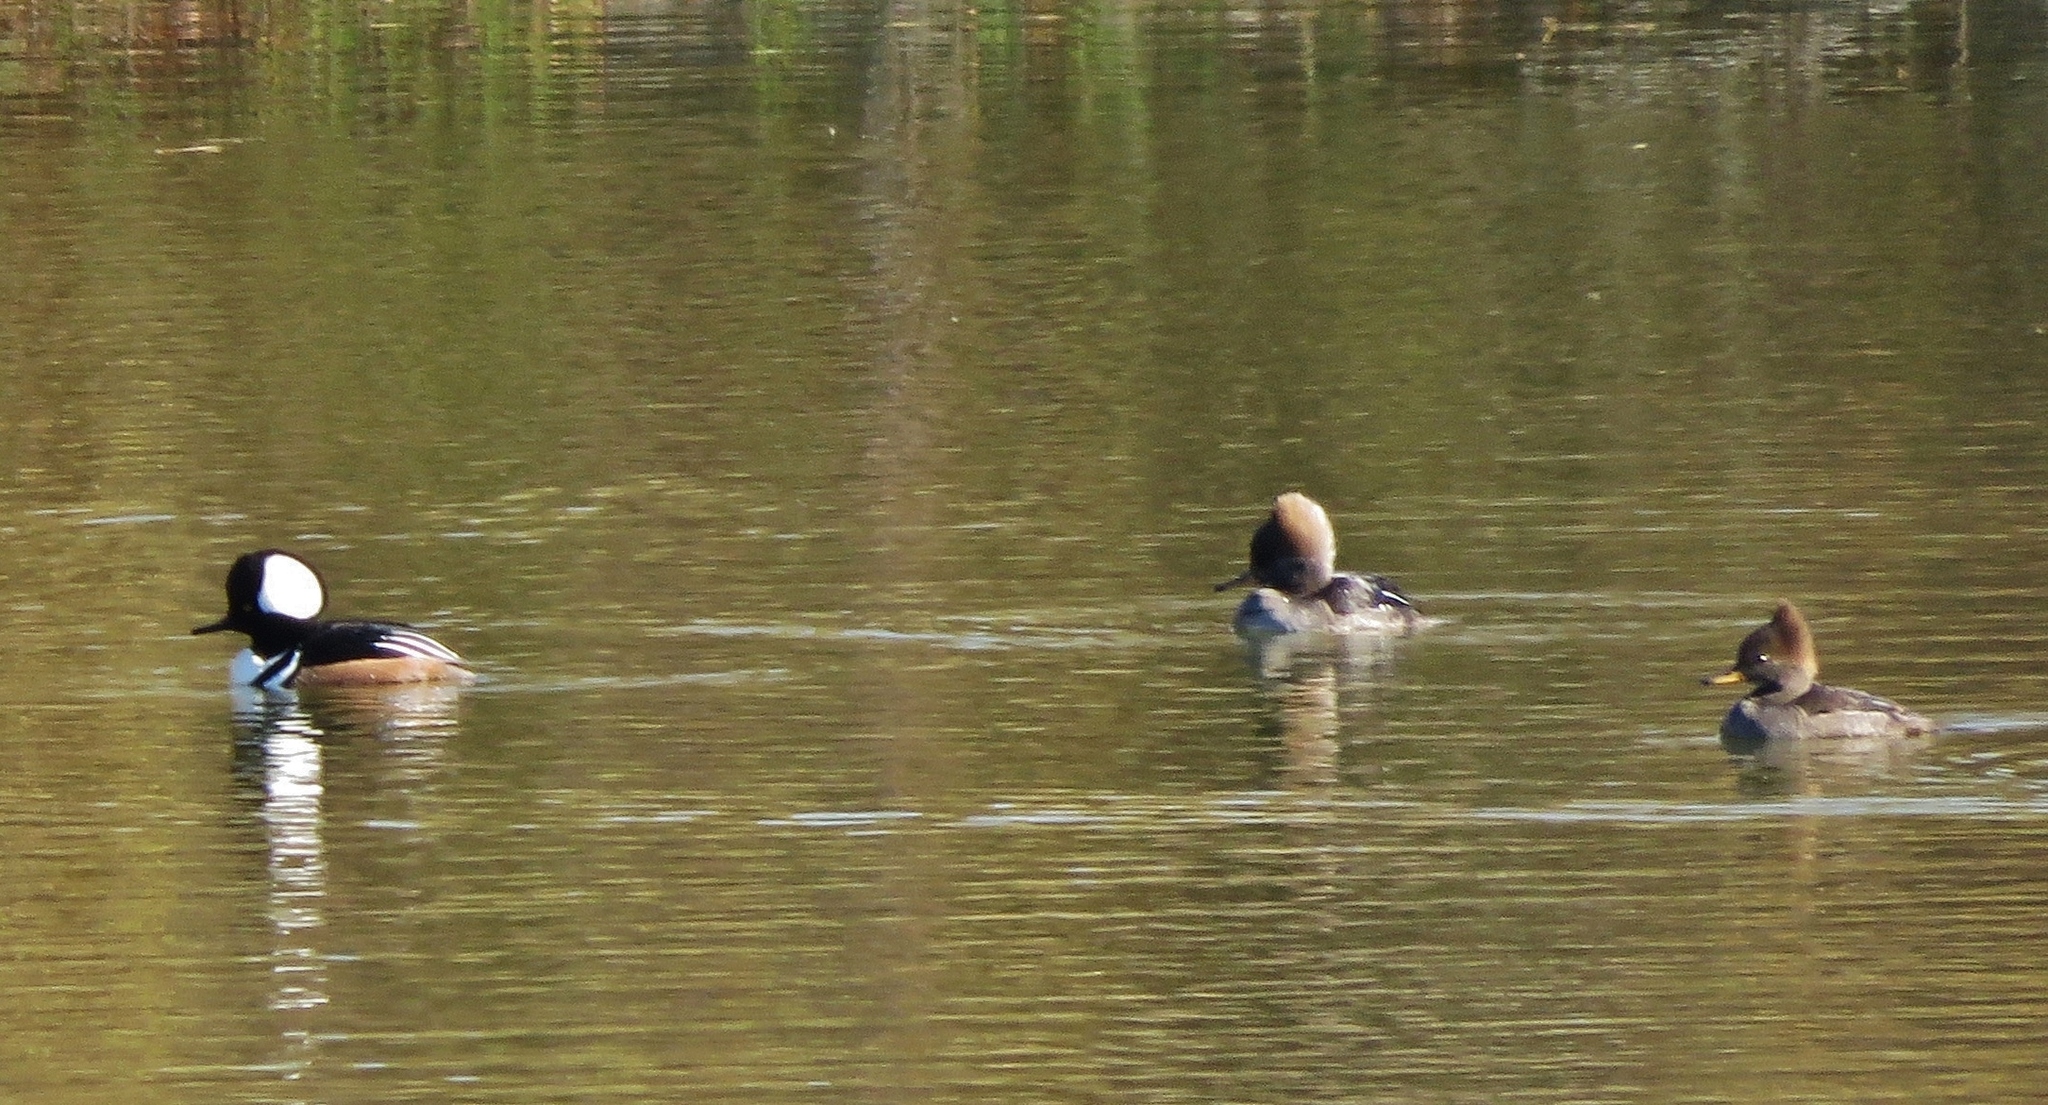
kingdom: Animalia
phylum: Chordata
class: Aves
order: Anseriformes
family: Anatidae
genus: Lophodytes
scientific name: Lophodytes cucullatus
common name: Hooded merganser
